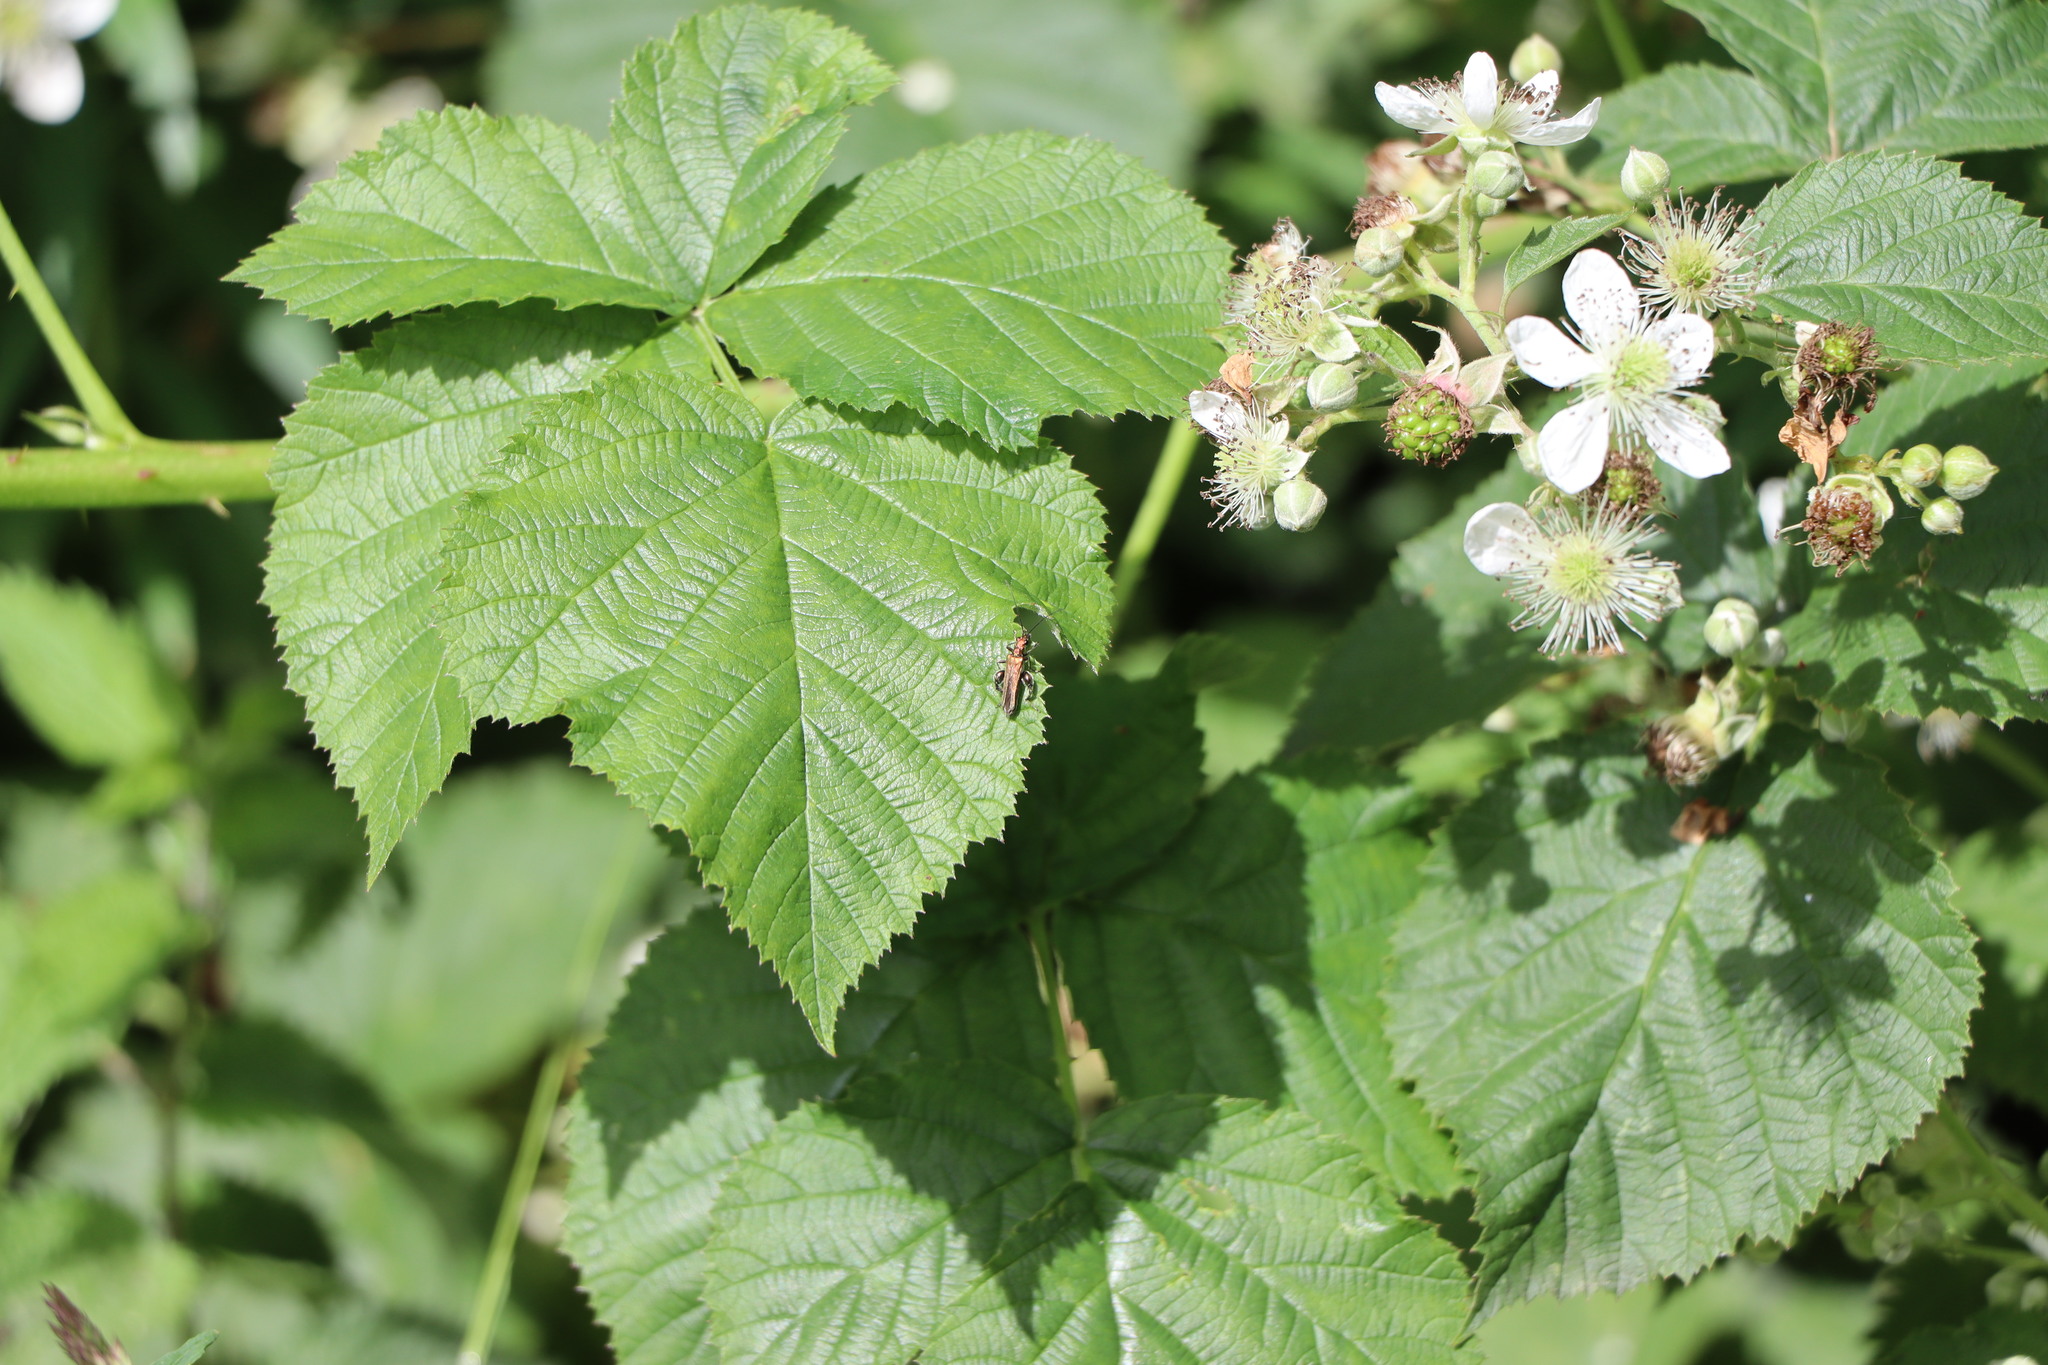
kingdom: Animalia
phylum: Arthropoda
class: Insecta
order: Coleoptera
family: Oedemeridae
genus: Oedemera
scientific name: Oedemera nobilis
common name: Swollen-thighed beetle
